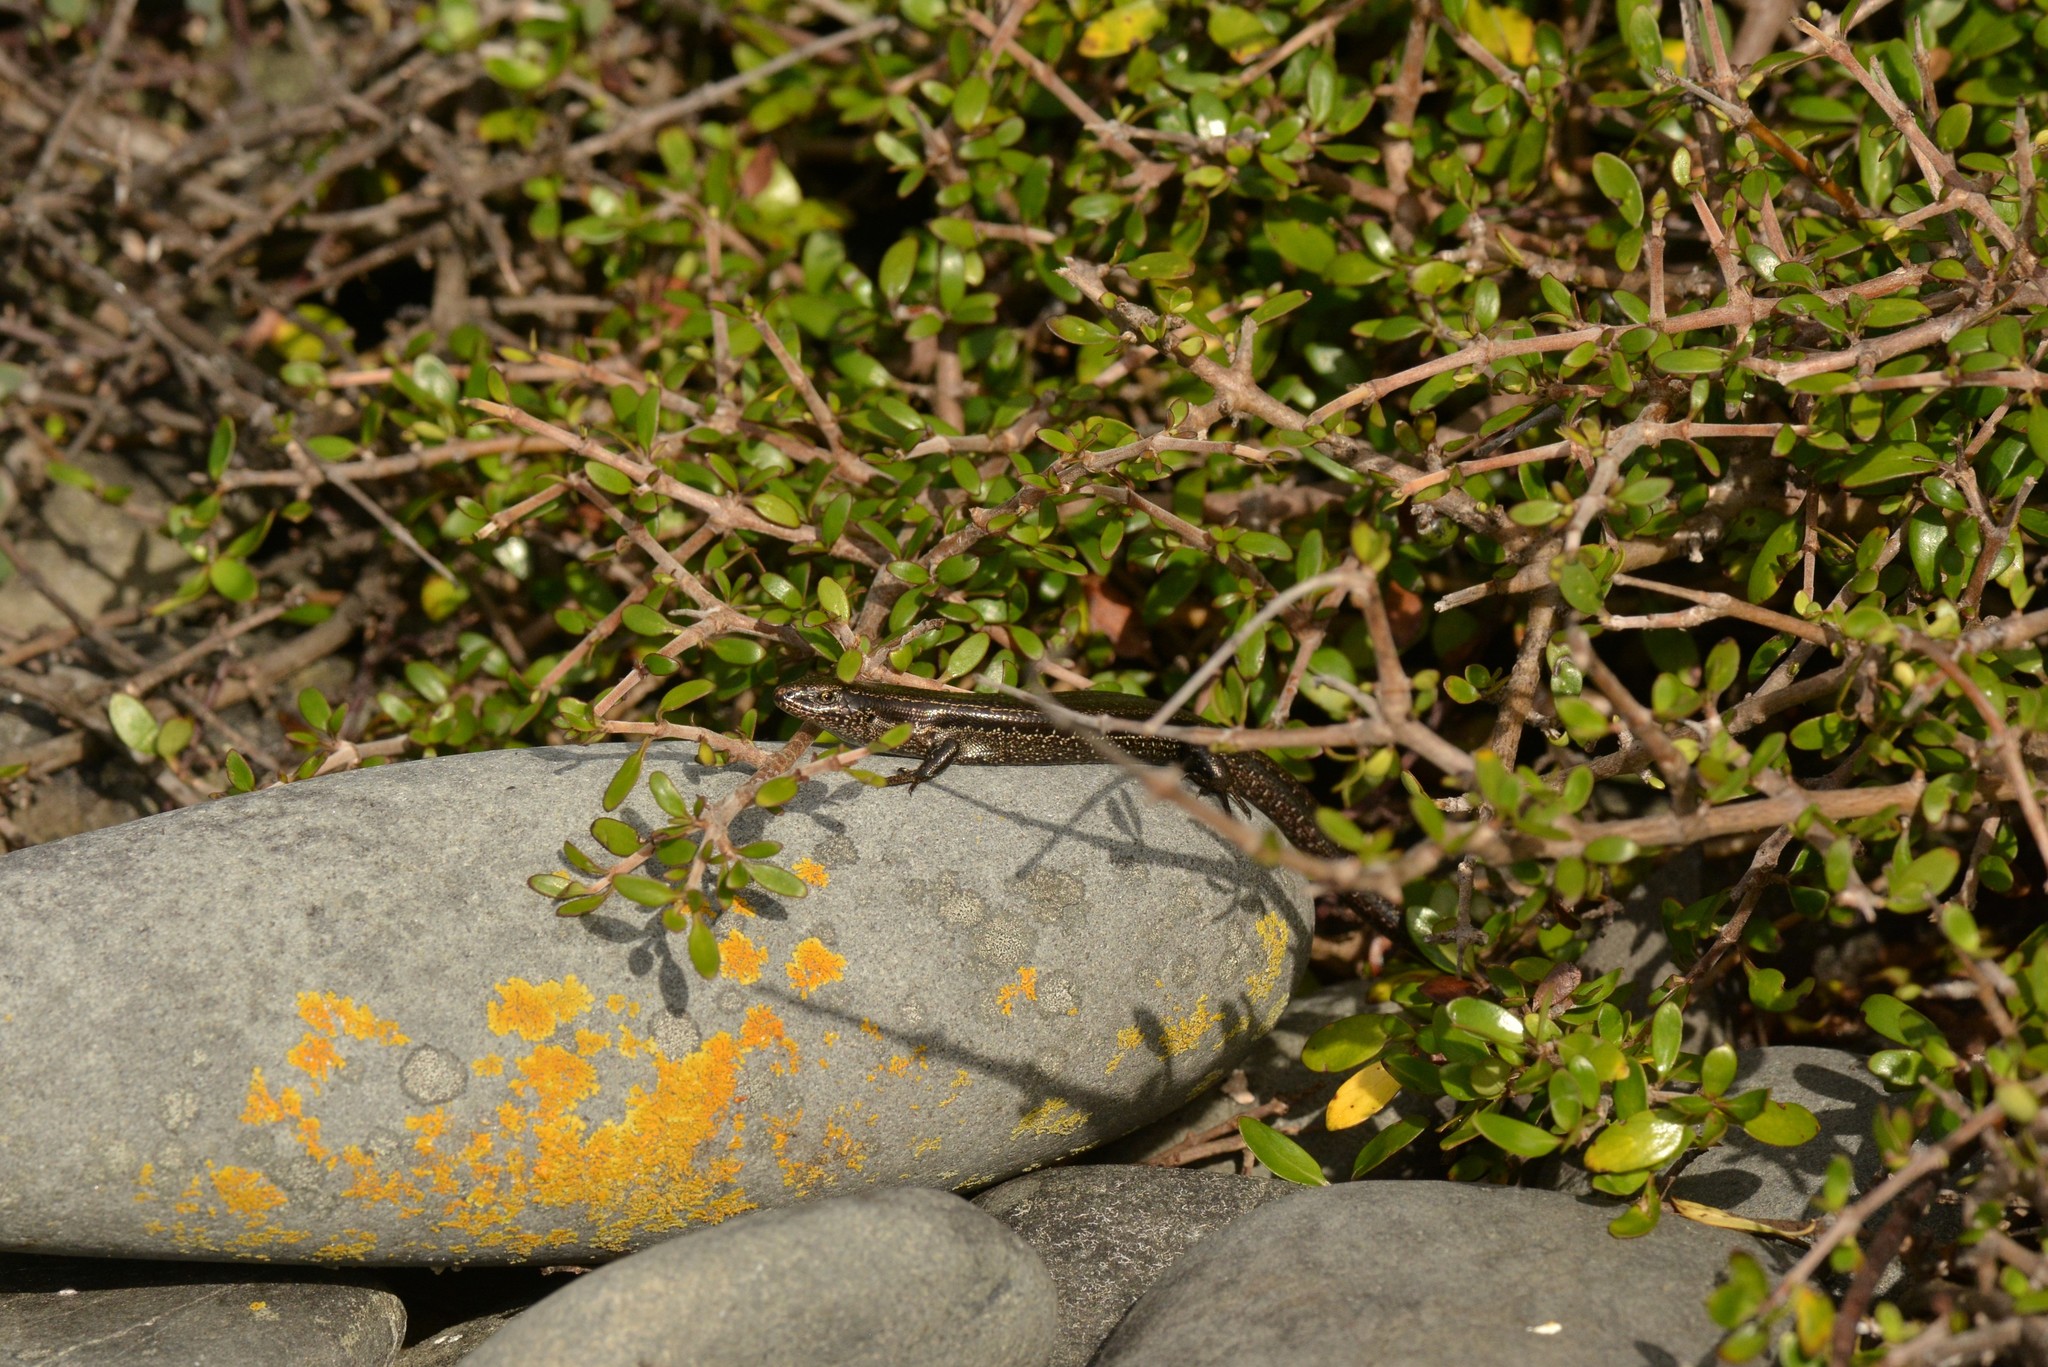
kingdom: Animalia
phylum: Chordata
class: Squamata
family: Scincidae
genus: Oligosoma
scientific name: Oligosoma polychroma
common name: Common new zealand skink
